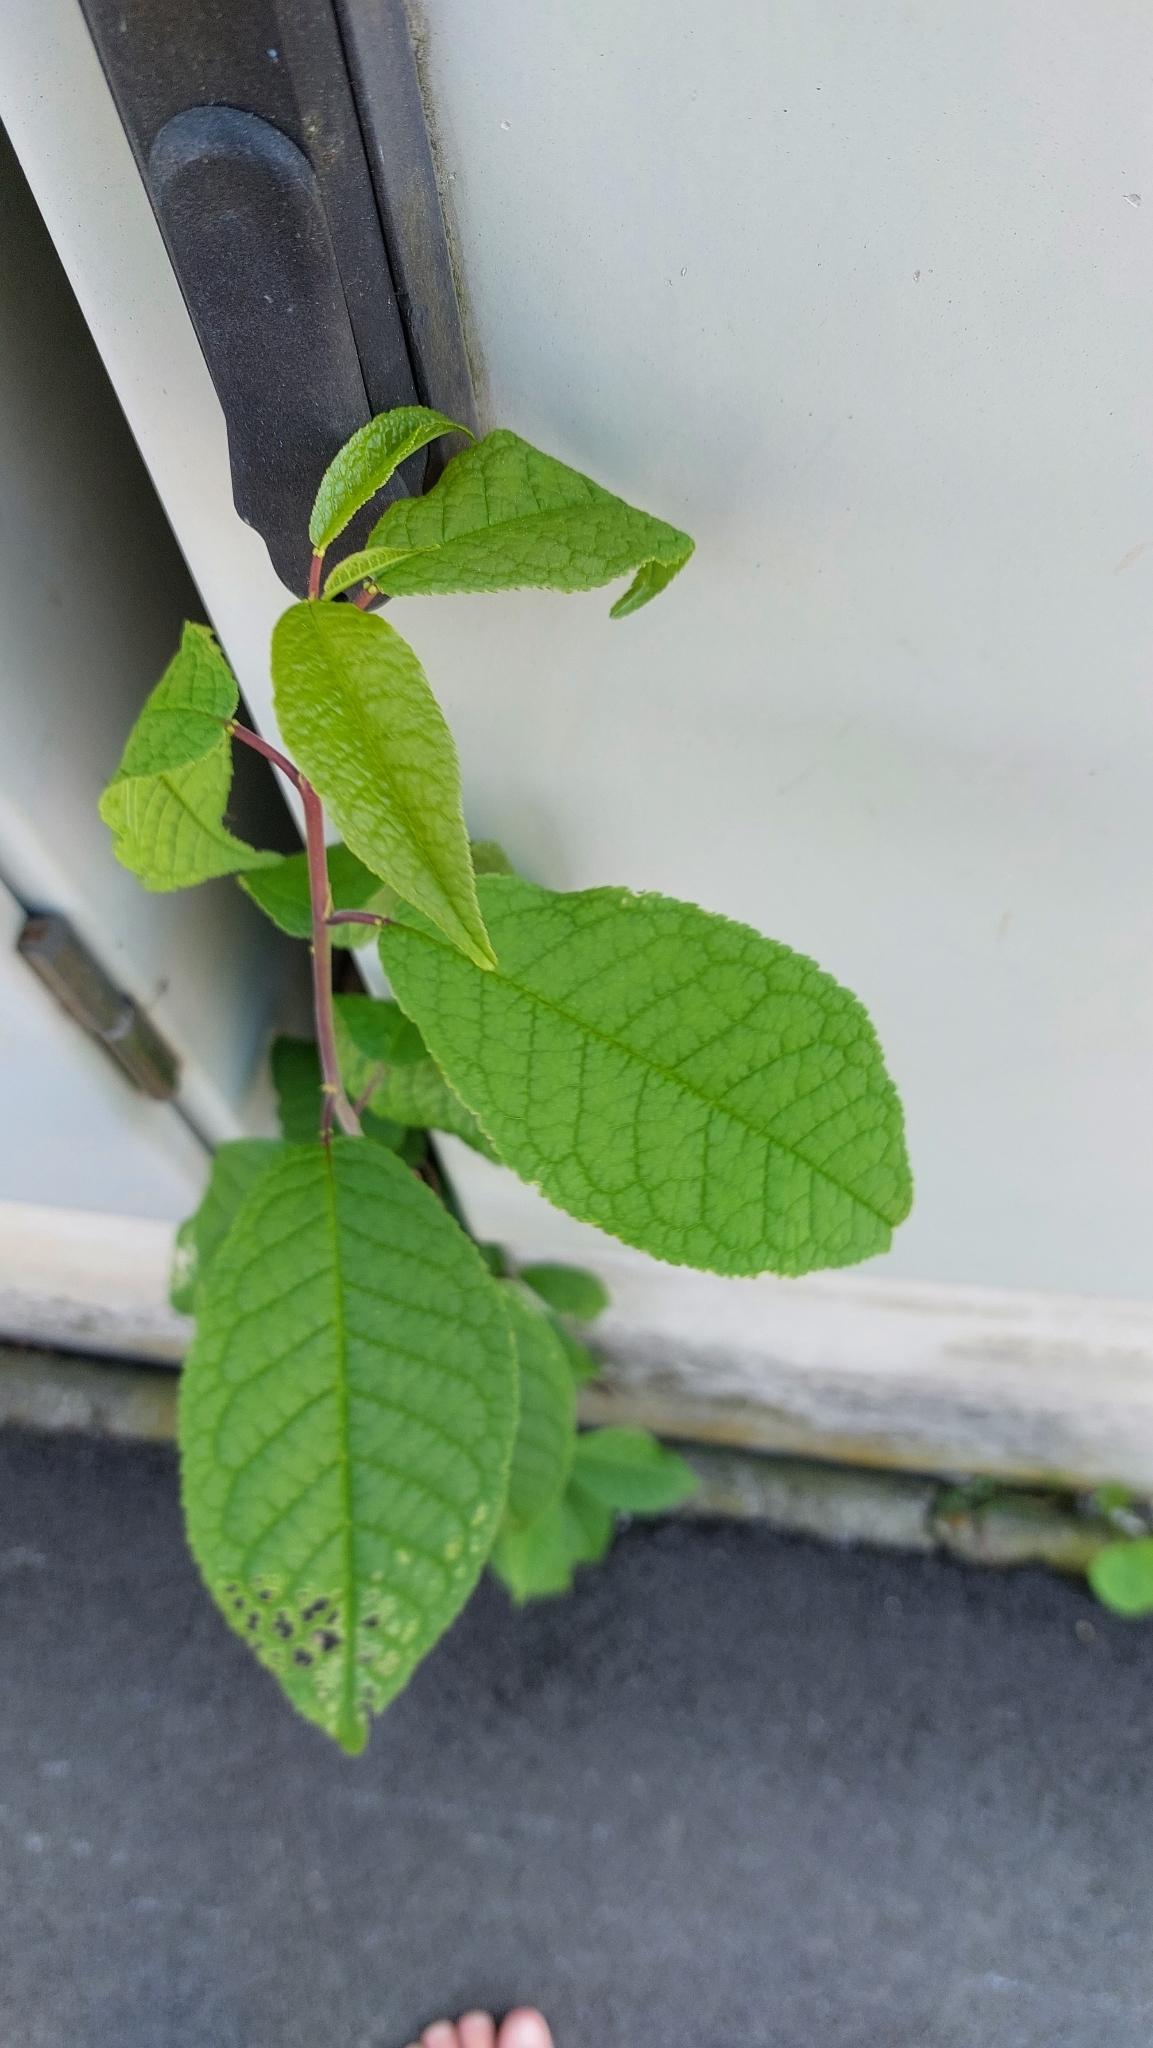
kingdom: Plantae
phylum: Tracheophyta
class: Magnoliopsida
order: Rosales
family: Rosaceae
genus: Prunus
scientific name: Prunus padus
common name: Bird cherry
